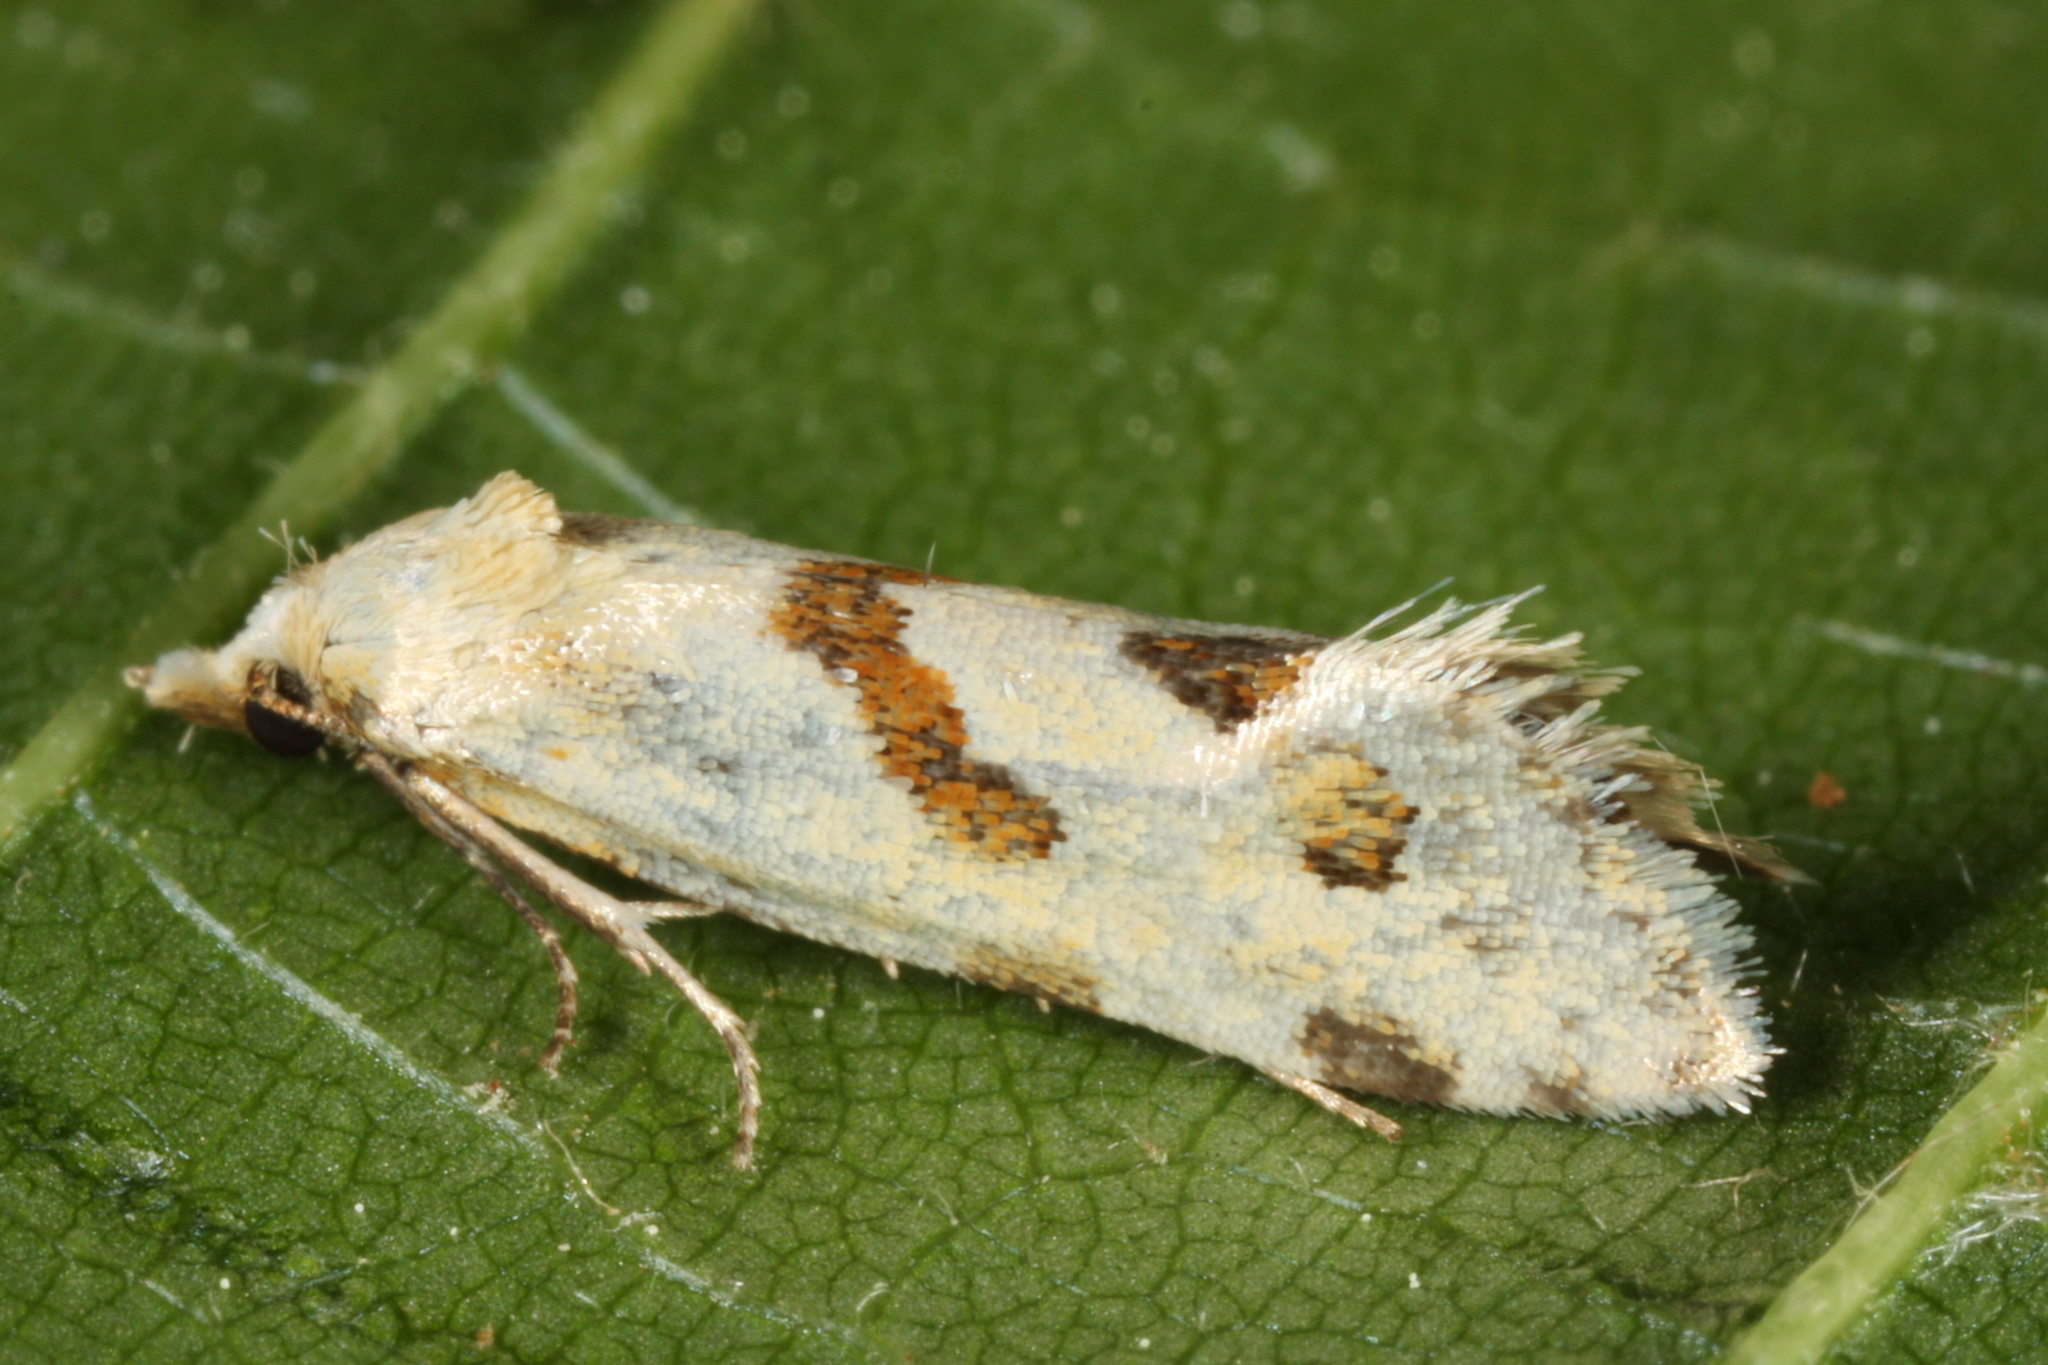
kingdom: Animalia
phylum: Arthropoda
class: Insecta
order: Lepidoptera
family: Tortricidae
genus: Aethes
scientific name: Aethes smeathmanniana
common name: Yarrow conch
